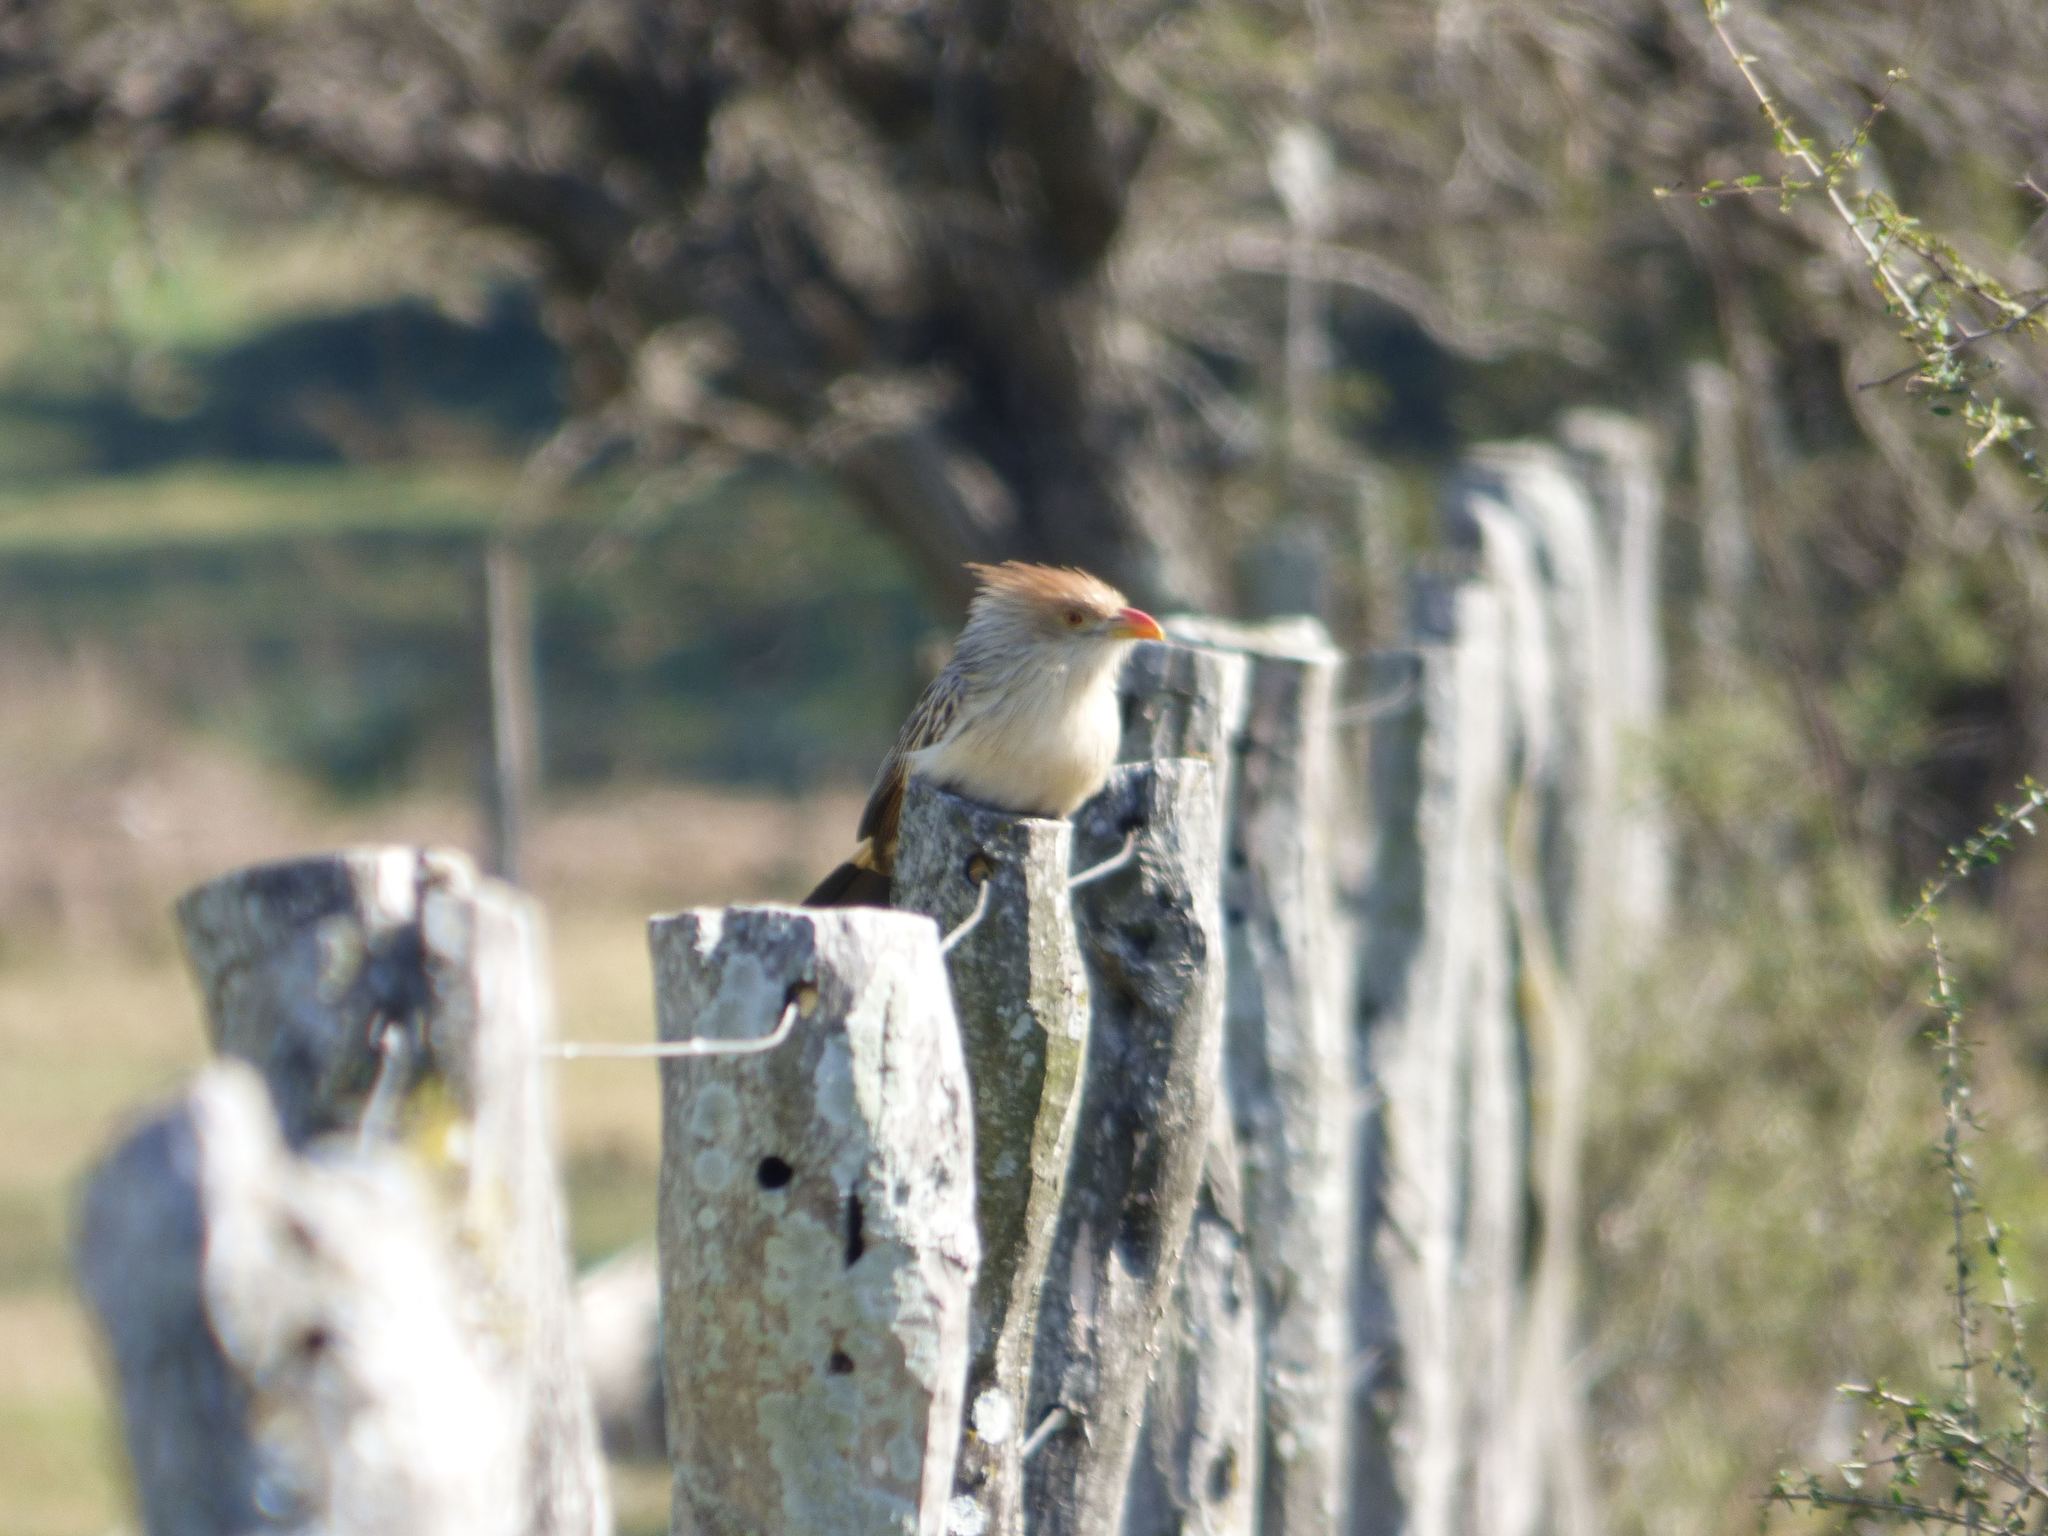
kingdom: Animalia
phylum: Chordata
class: Aves
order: Cuculiformes
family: Cuculidae
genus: Guira
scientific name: Guira guira
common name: Guira cuckoo
